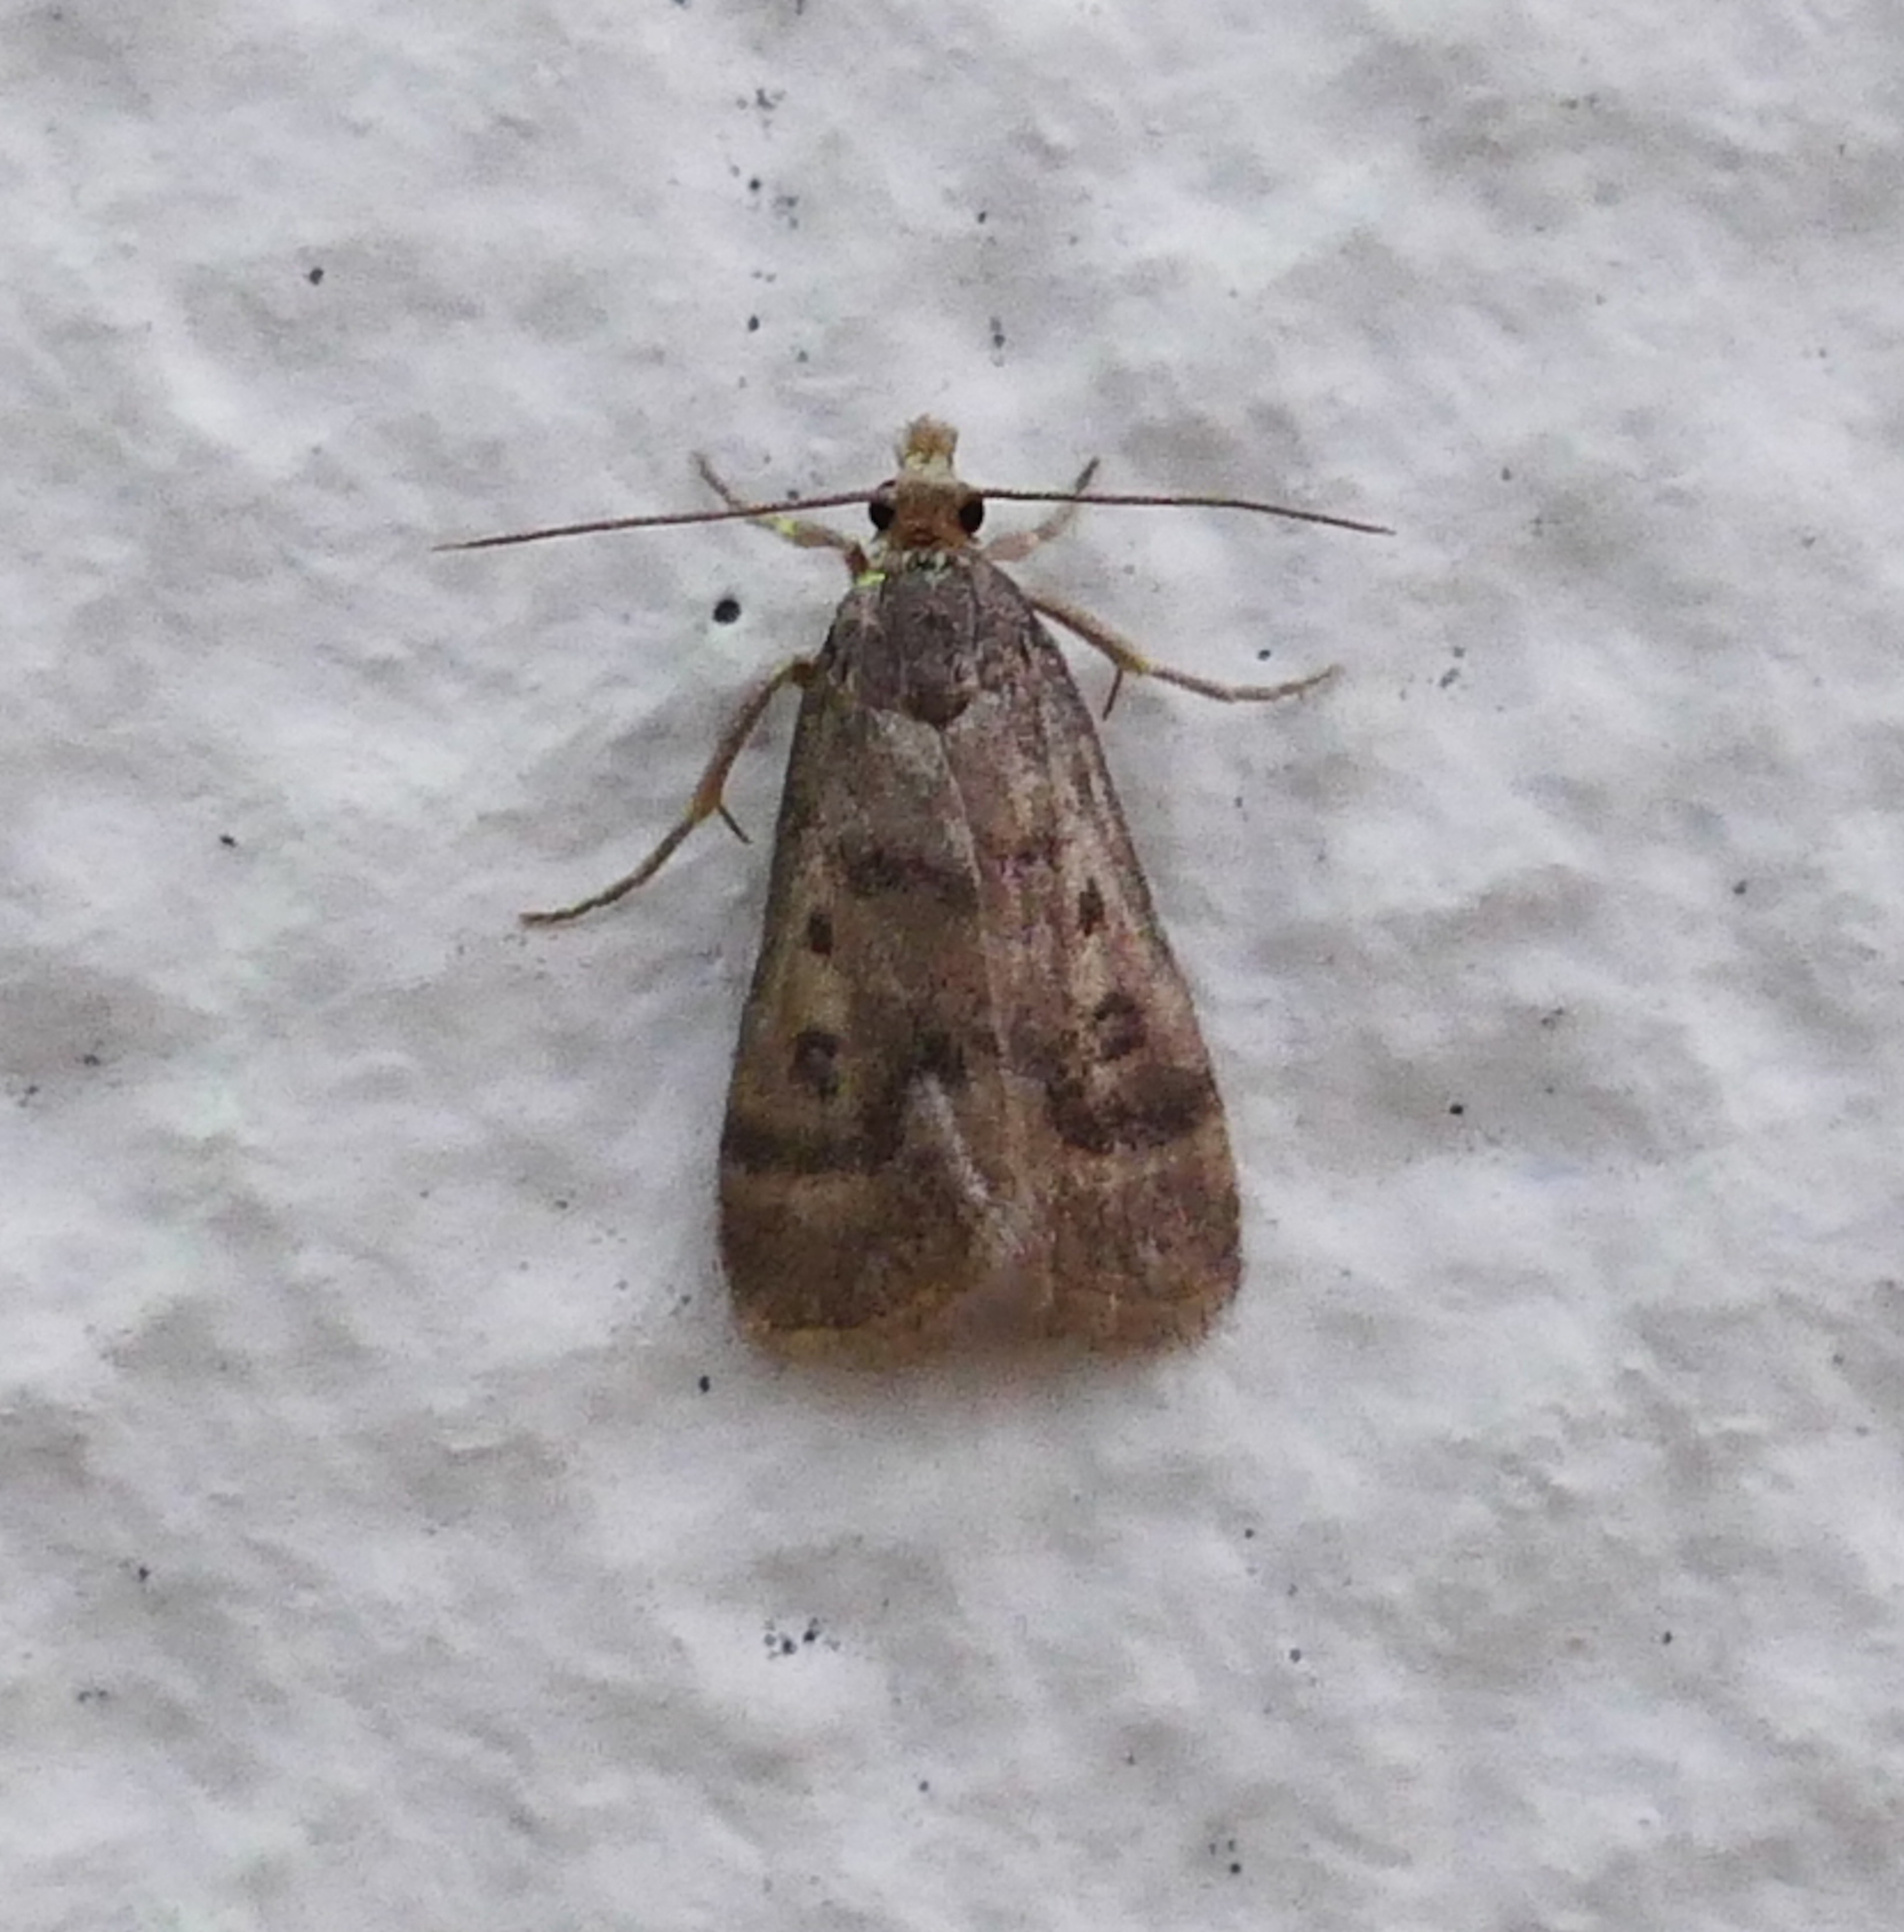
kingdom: Animalia
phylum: Arthropoda
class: Insecta
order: Lepidoptera
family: Crambidae
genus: Loxostegopsis
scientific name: Loxostegopsis polle
